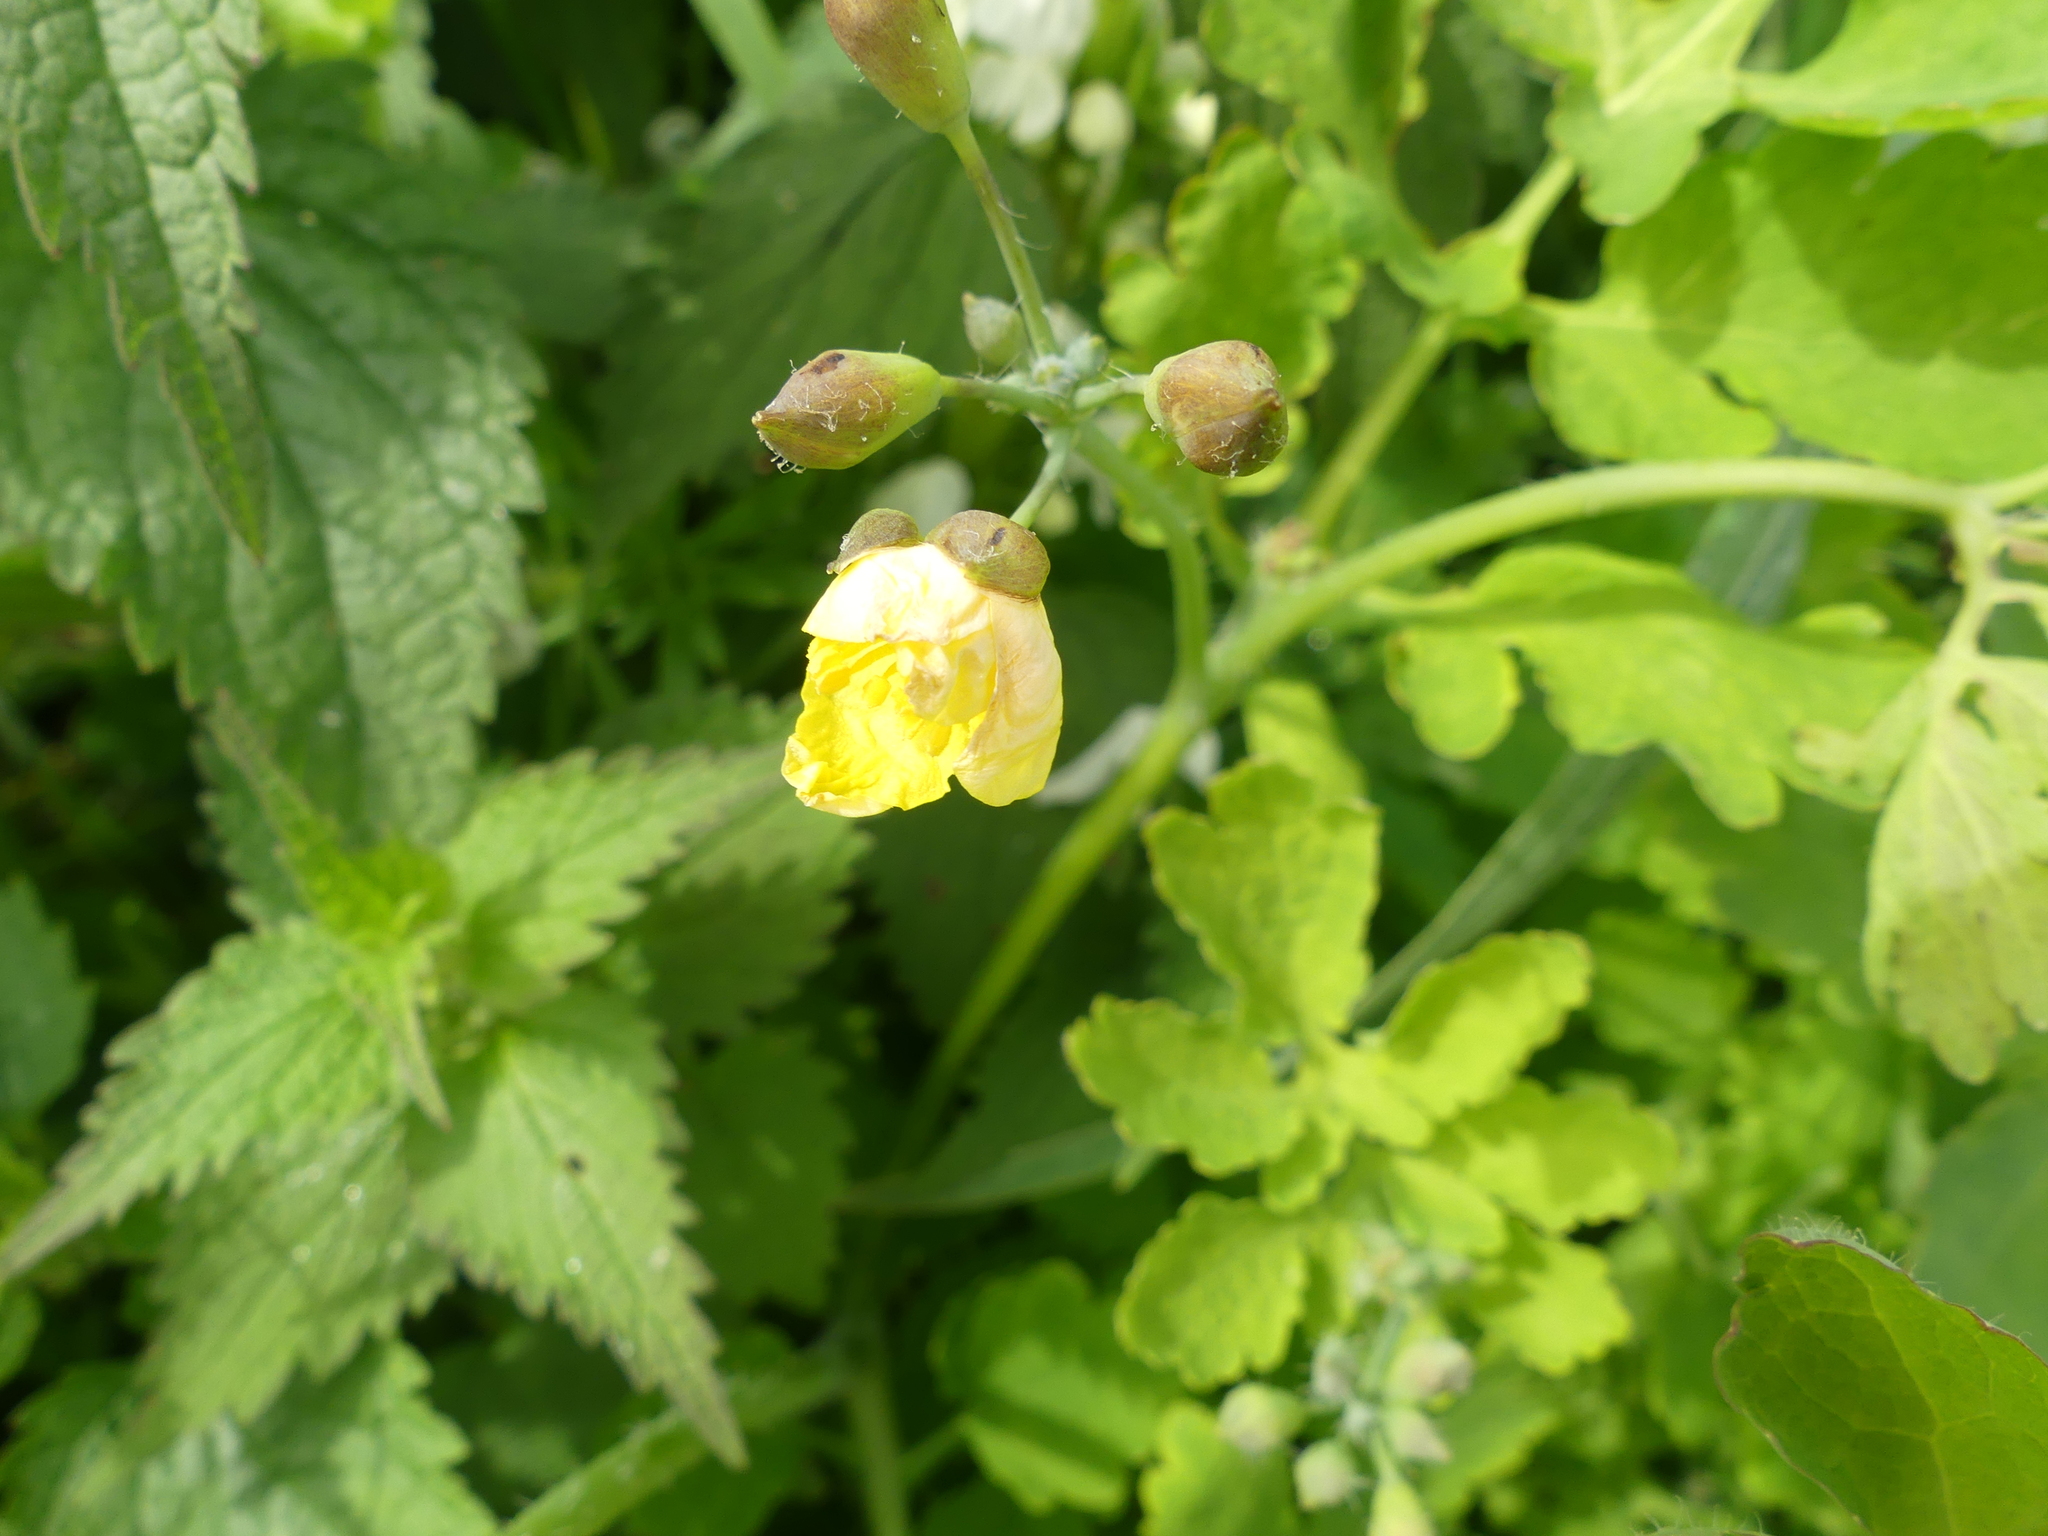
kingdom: Plantae
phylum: Tracheophyta
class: Magnoliopsida
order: Ranunculales
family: Papaveraceae
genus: Chelidonium
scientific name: Chelidonium majus
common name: Greater celandine
